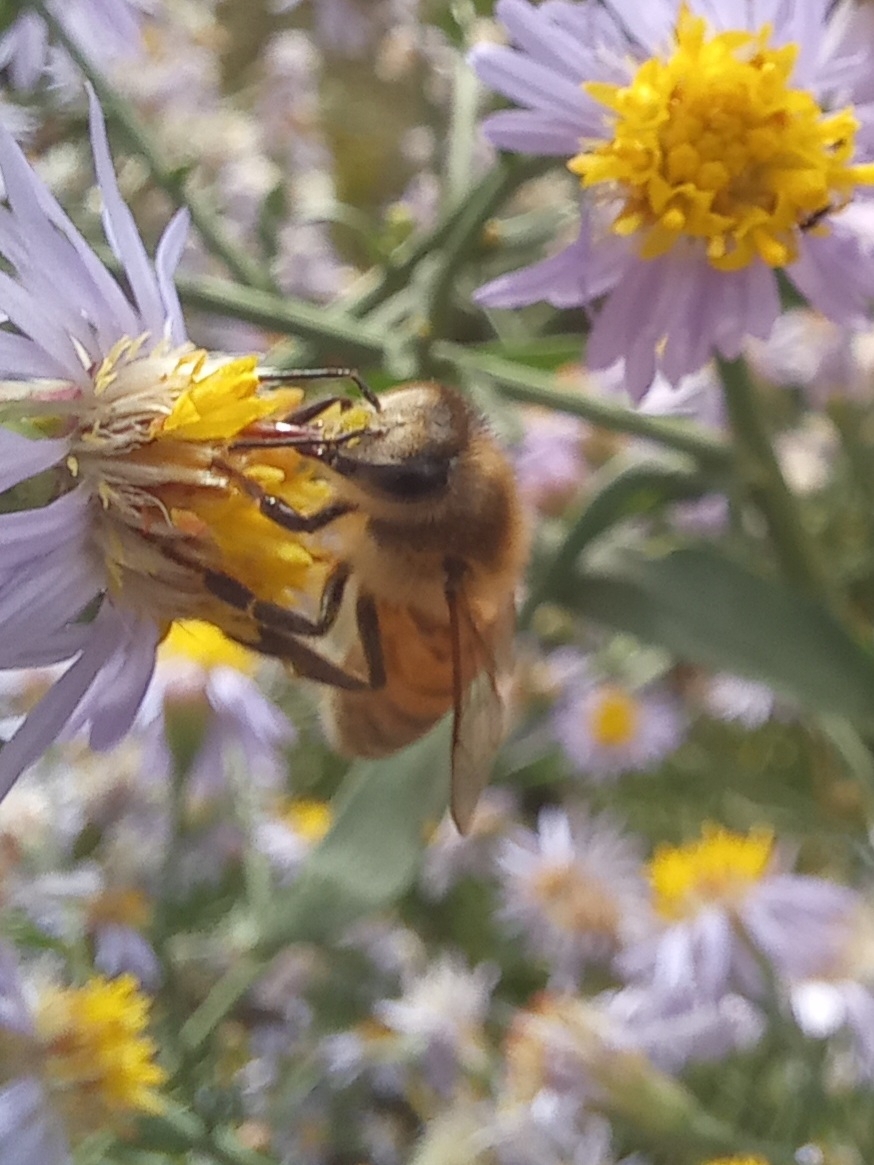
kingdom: Animalia
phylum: Arthropoda
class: Insecta
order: Hymenoptera
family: Apidae
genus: Apis
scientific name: Apis mellifera
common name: Honey bee
